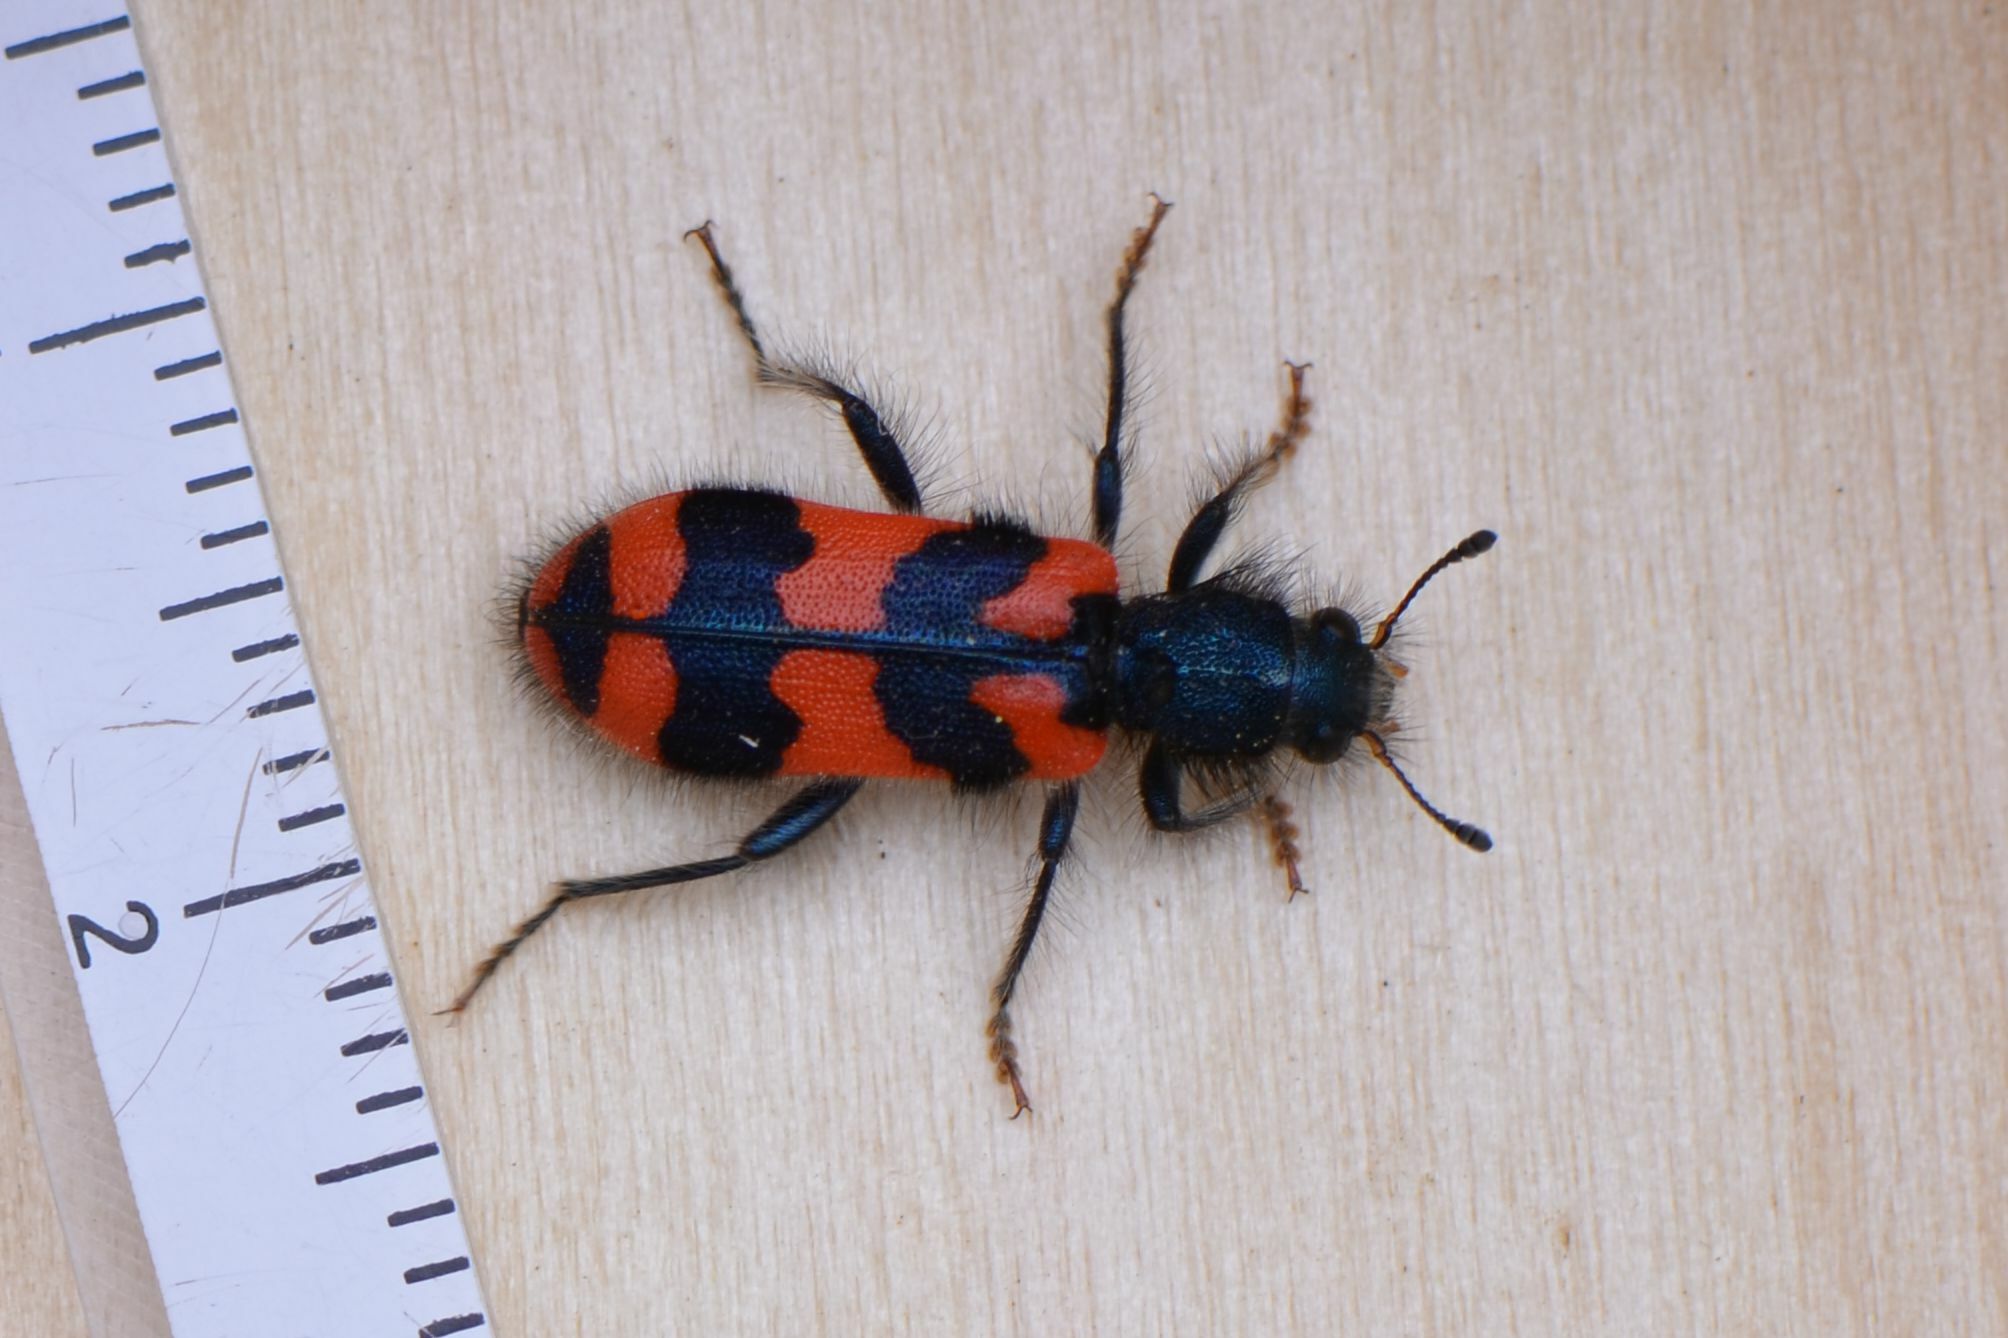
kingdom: Animalia
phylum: Arthropoda
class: Insecta
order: Coleoptera
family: Cleridae
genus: Trichodes
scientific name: Trichodes alvearius
